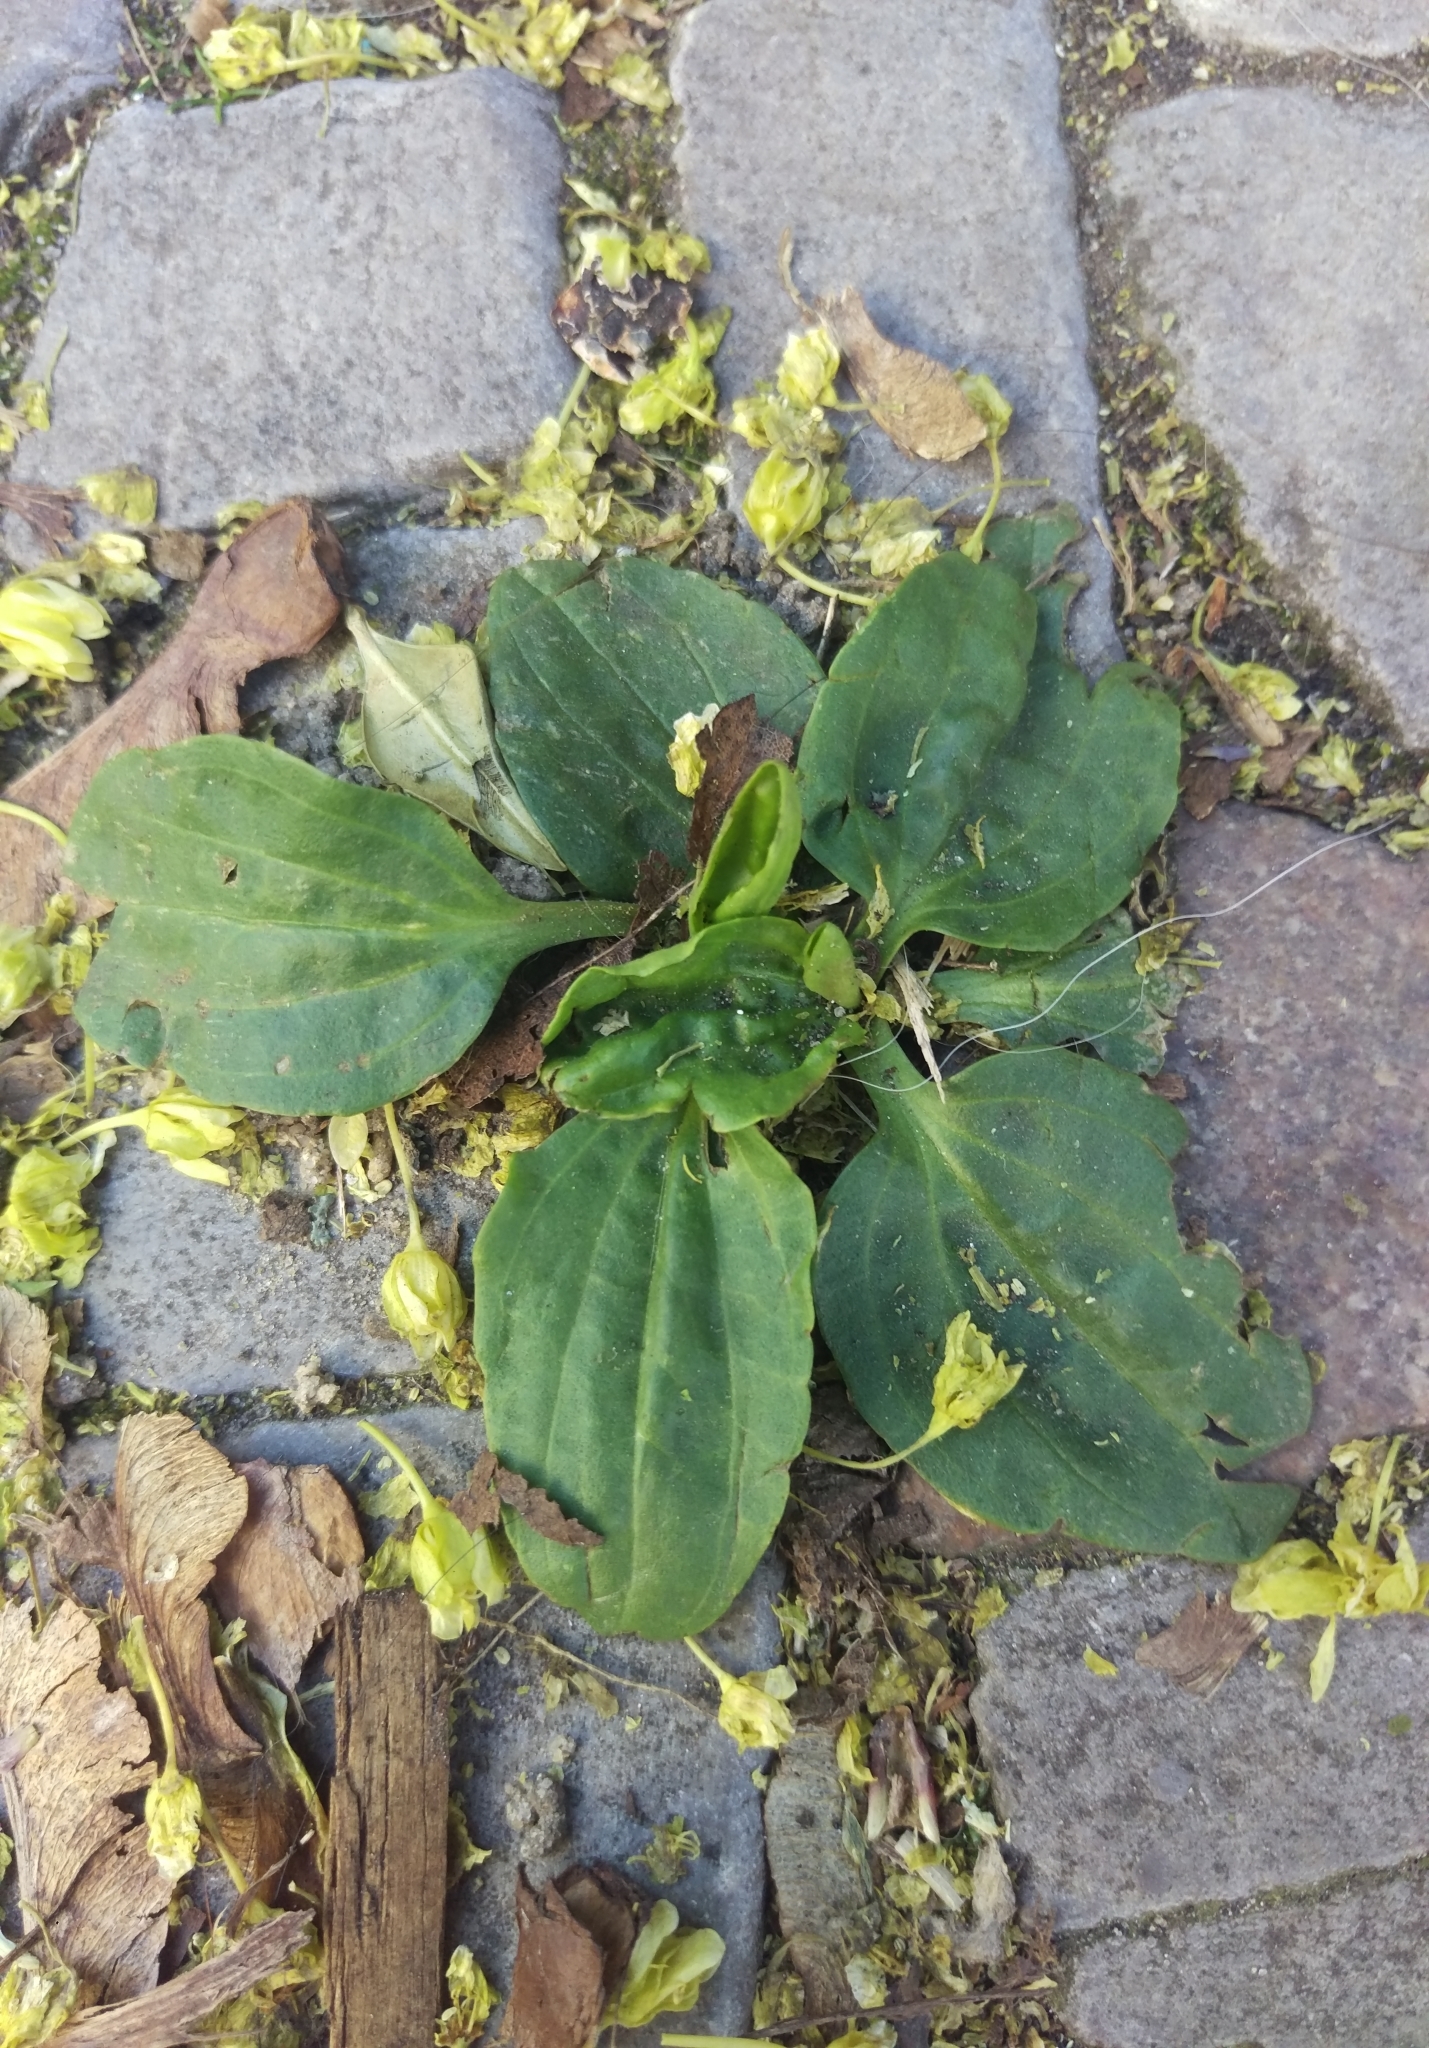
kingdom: Plantae
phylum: Tracheophyta
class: Magnoliopsida
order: Lamiales
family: Plantaginaceae
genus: Plantago
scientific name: Plantago major
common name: Common plantain
